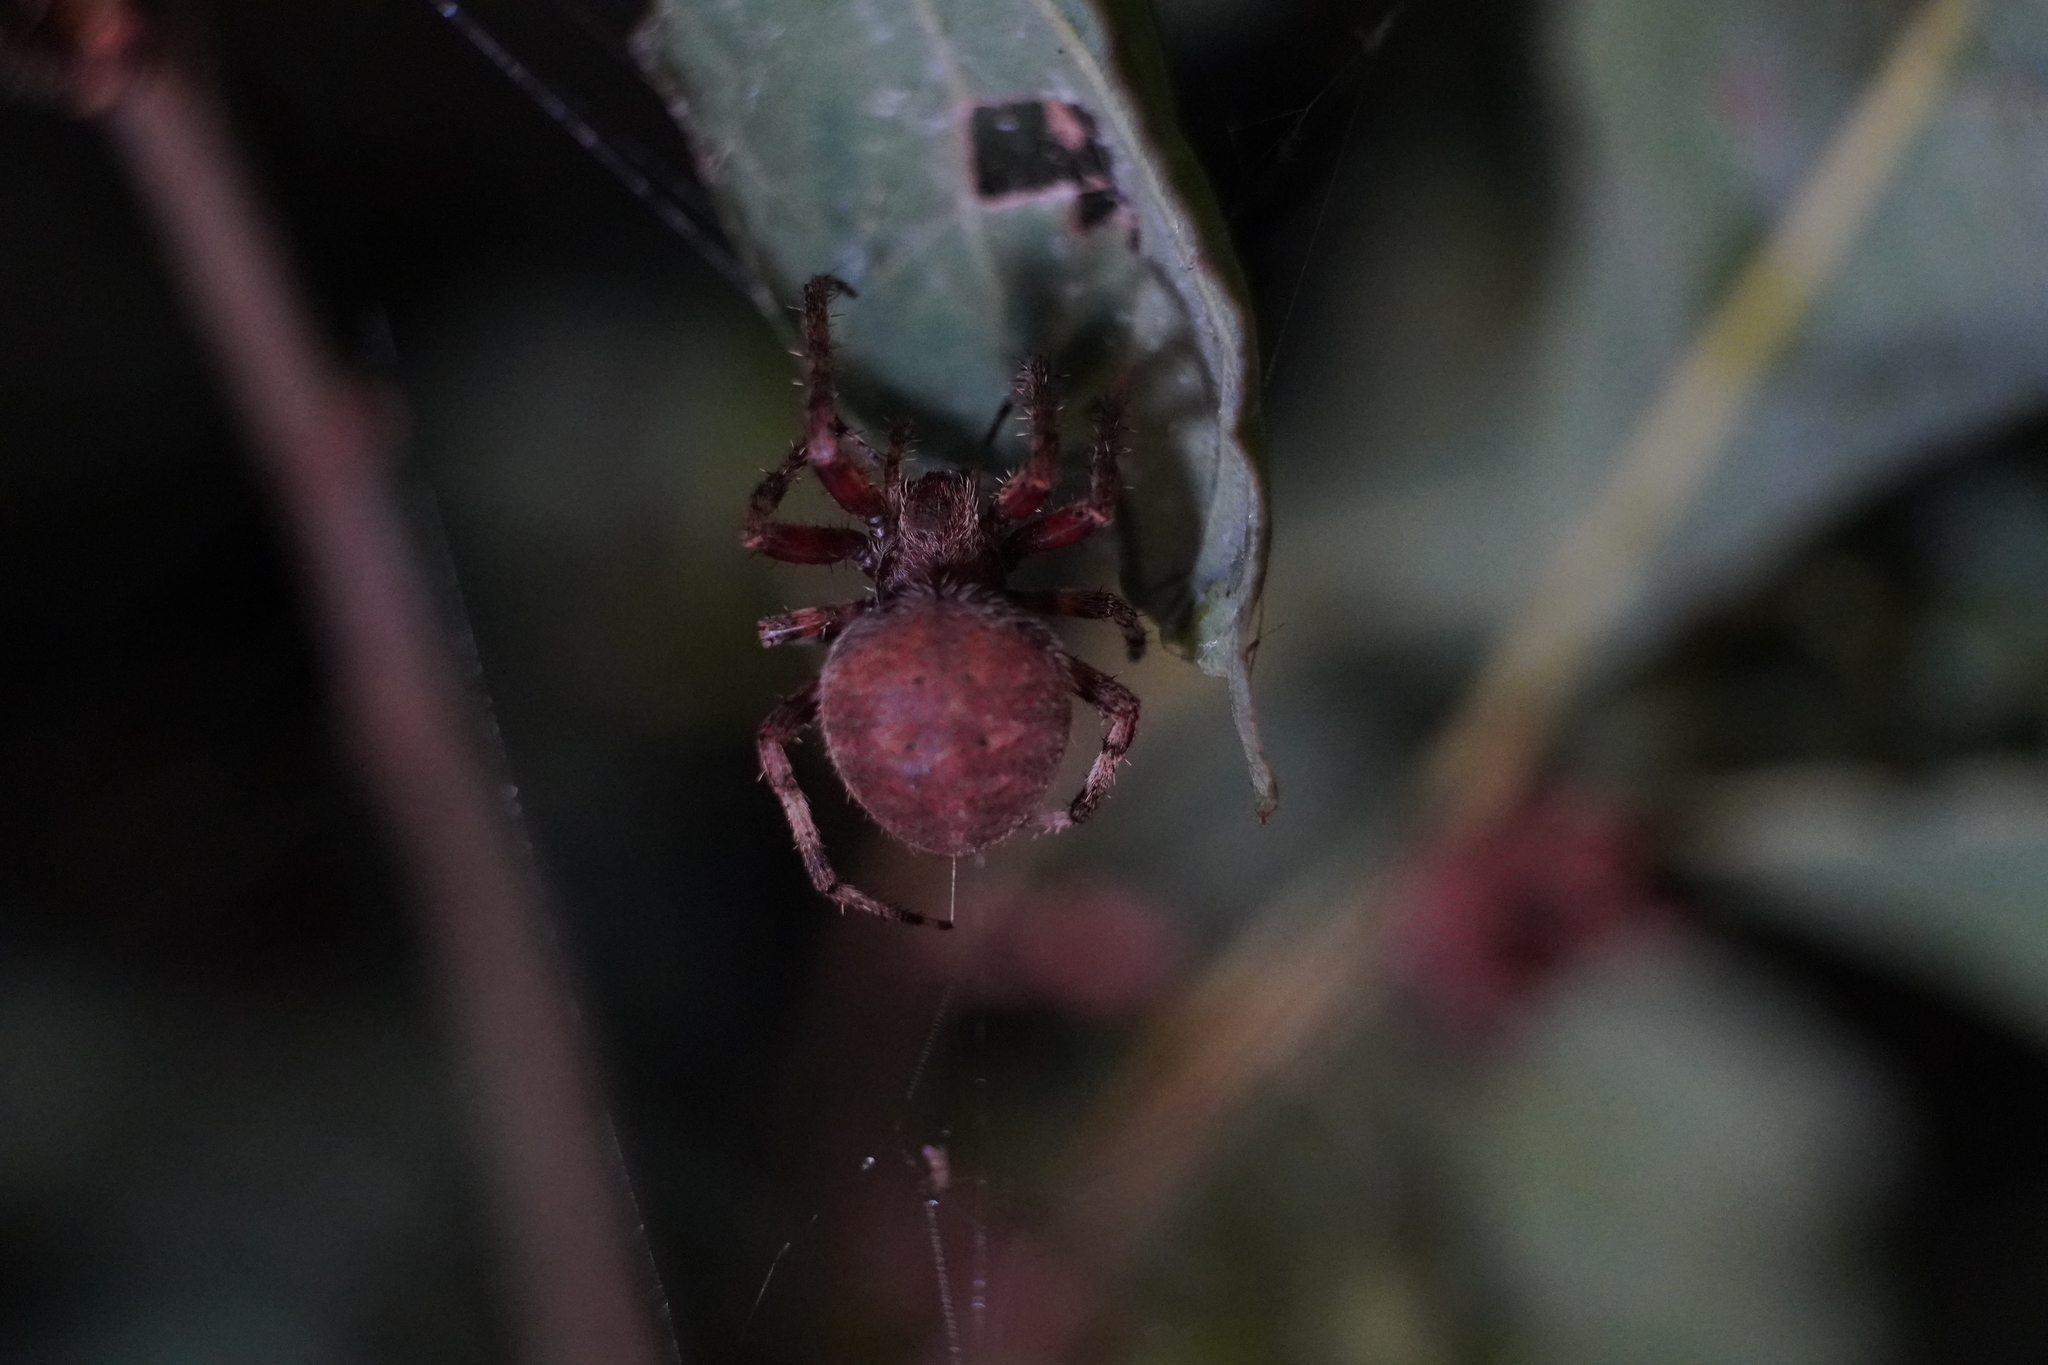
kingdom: Animalia
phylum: Arthropoda
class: Arachnida
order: Araneae
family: Araneidae
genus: Neoscona
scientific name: Neoscona crucifera
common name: Spotted orbweaver
